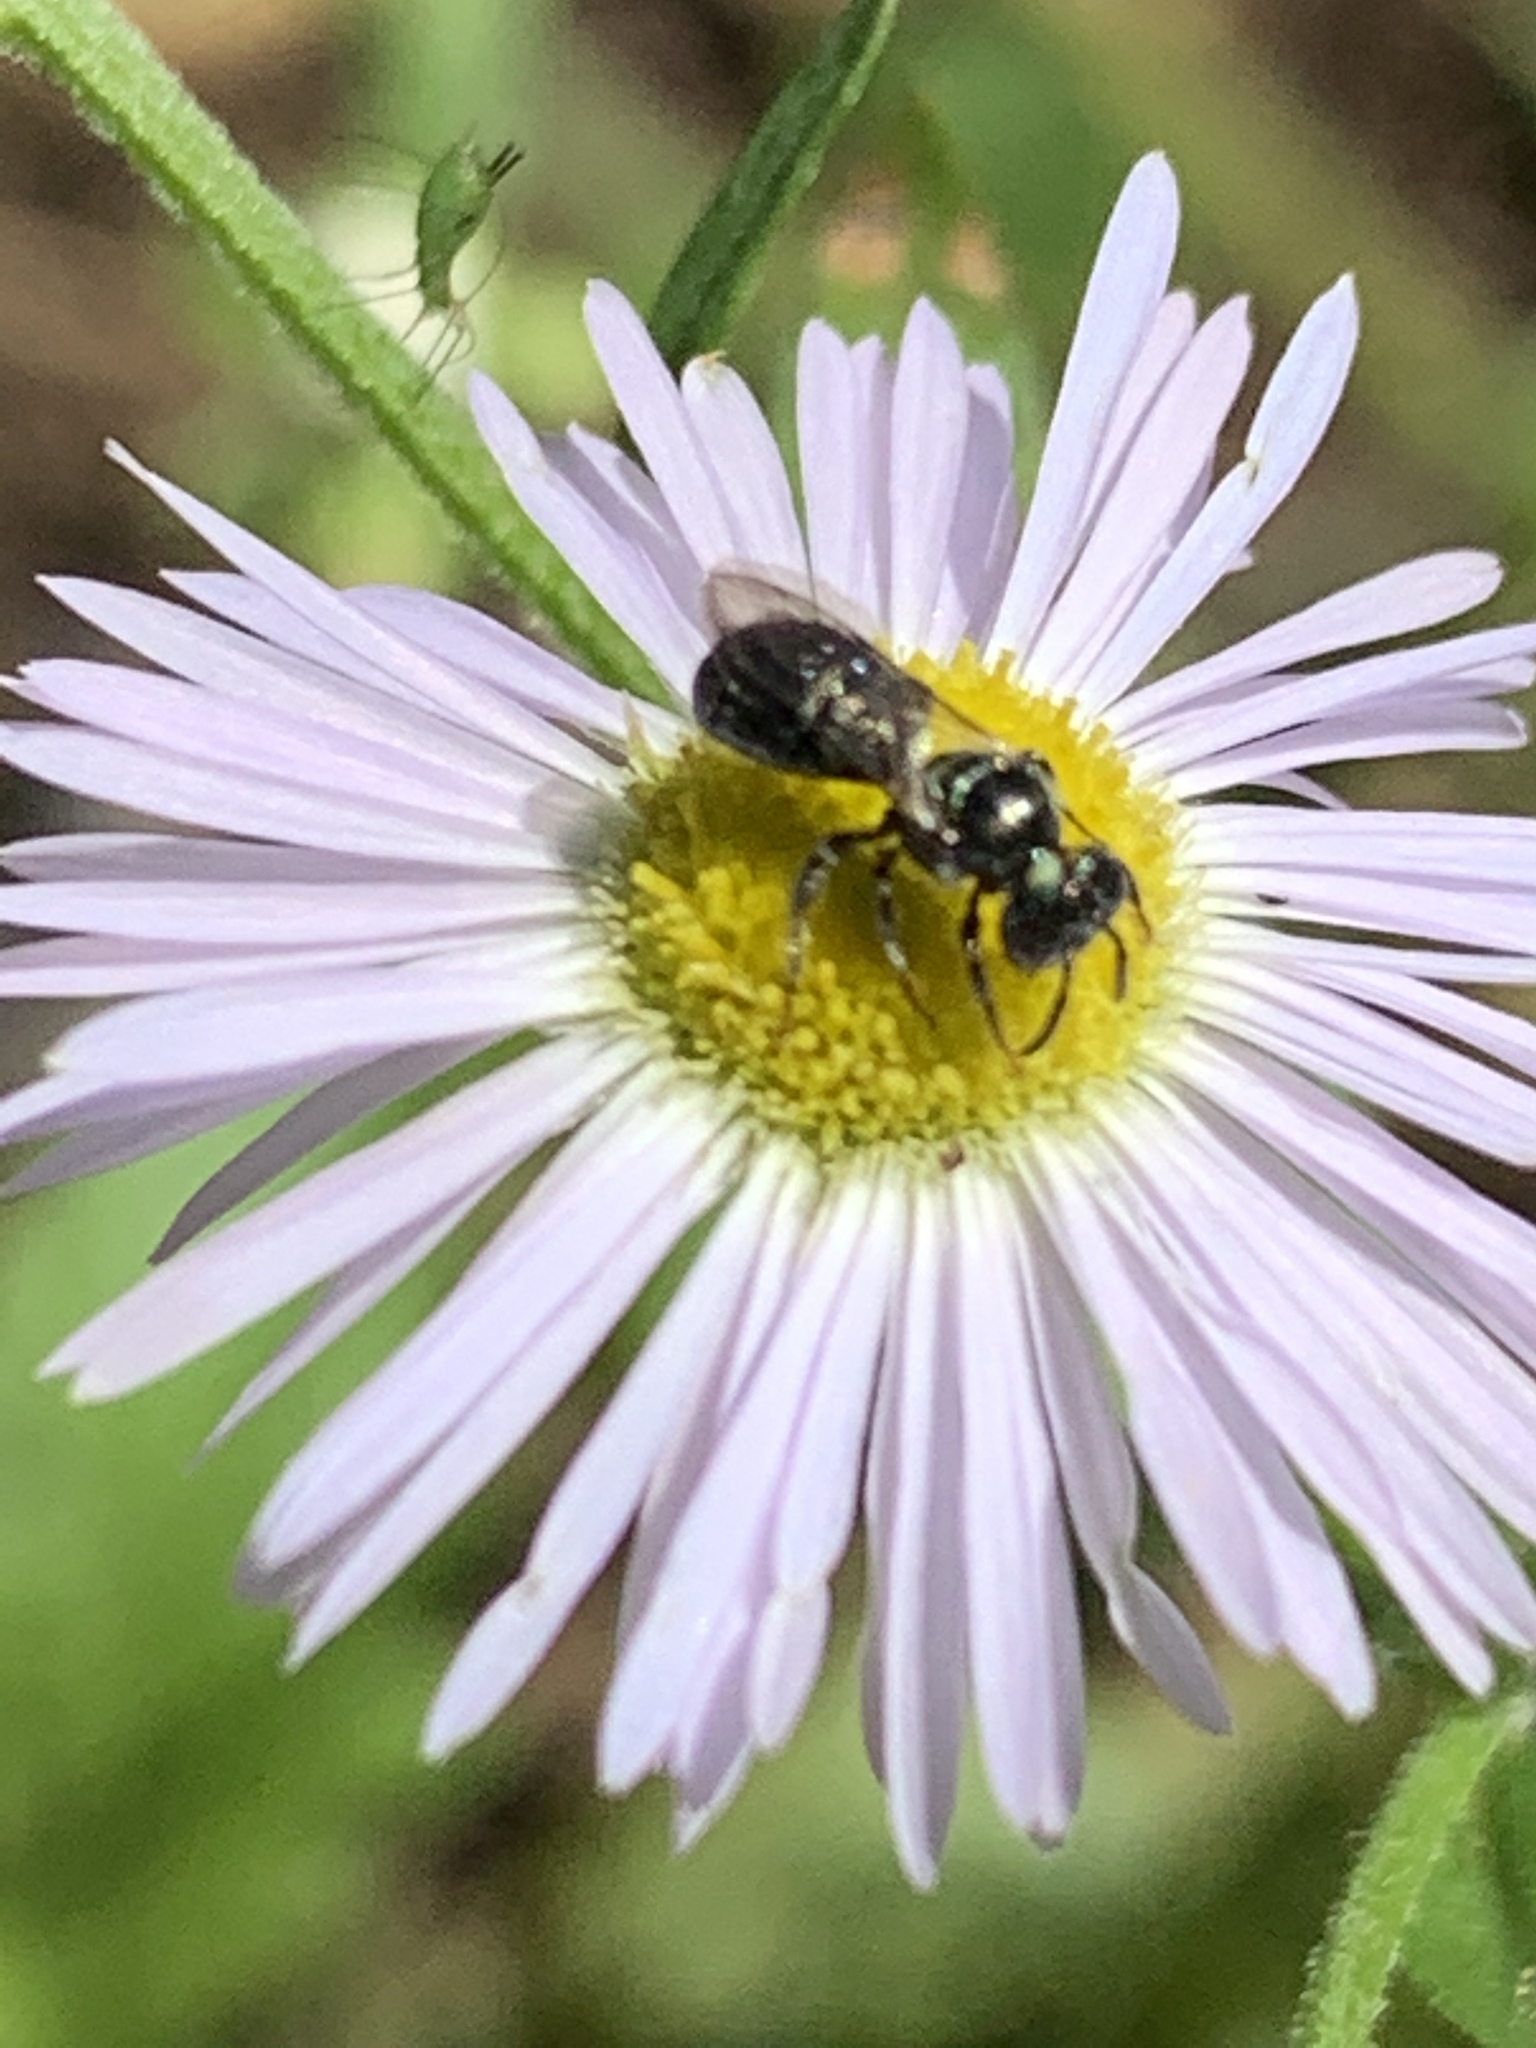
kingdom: Animalia
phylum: Arthropoda
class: Insecta
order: Hymenoptera
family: Apidae
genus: Ceratina
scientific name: Ceratina calcarata
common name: Spurred carpenter bee
